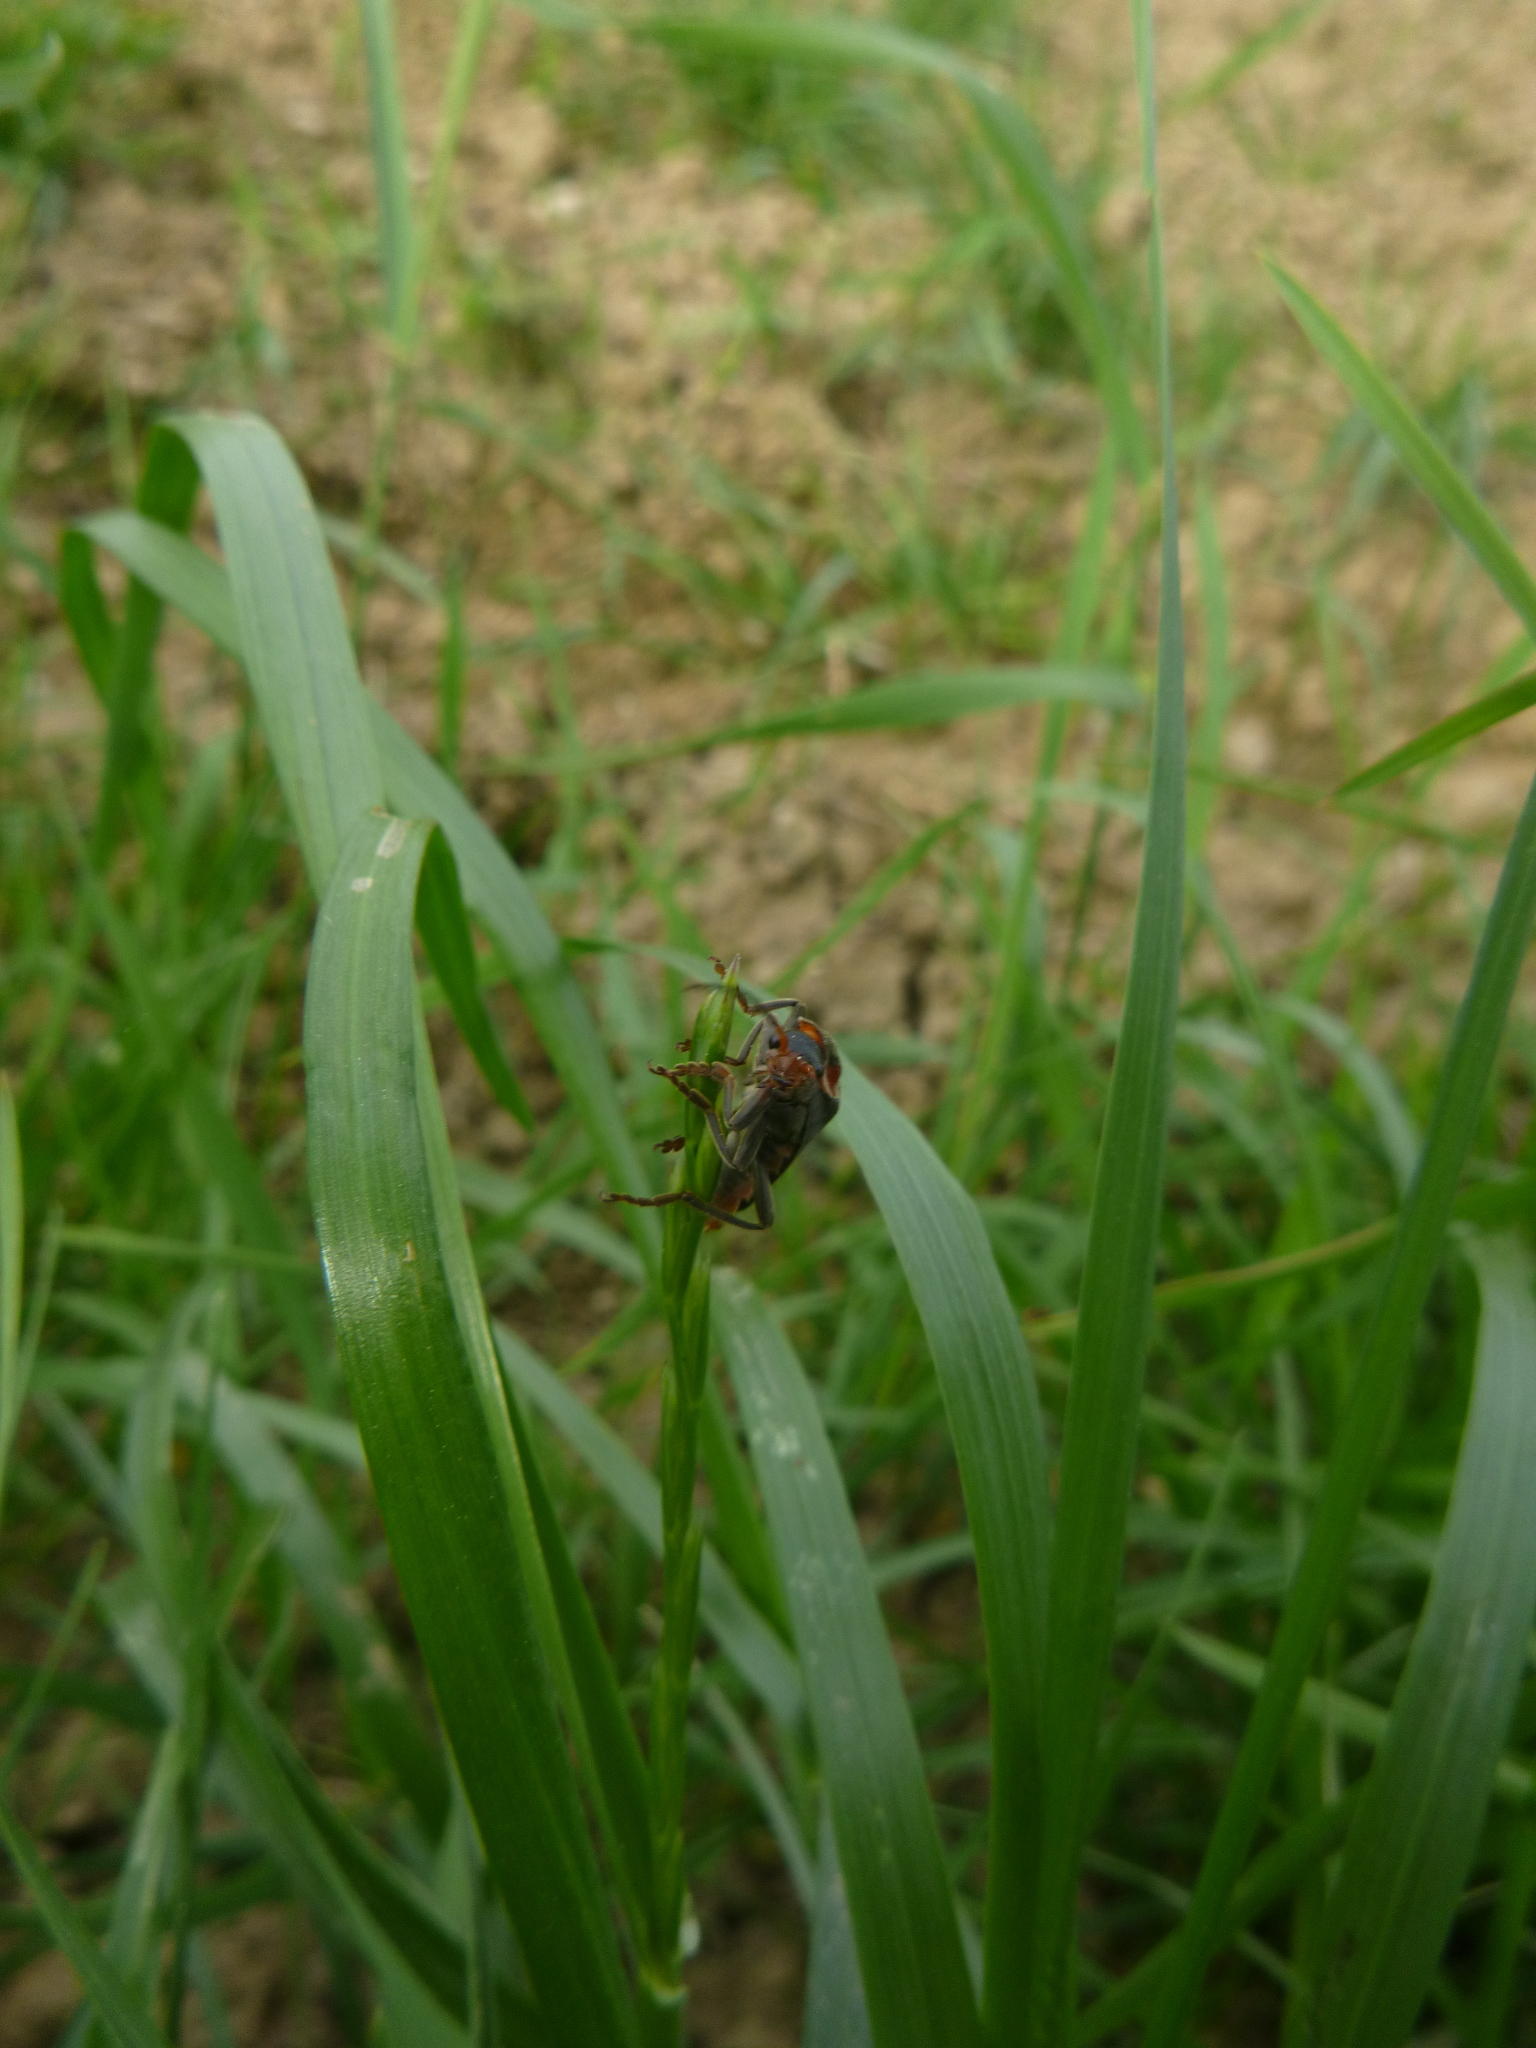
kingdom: Animalia
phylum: Arthropoda
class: Insecta
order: Coleoptera
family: Cantharidae
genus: Cantharis
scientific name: Cantharis fusca
